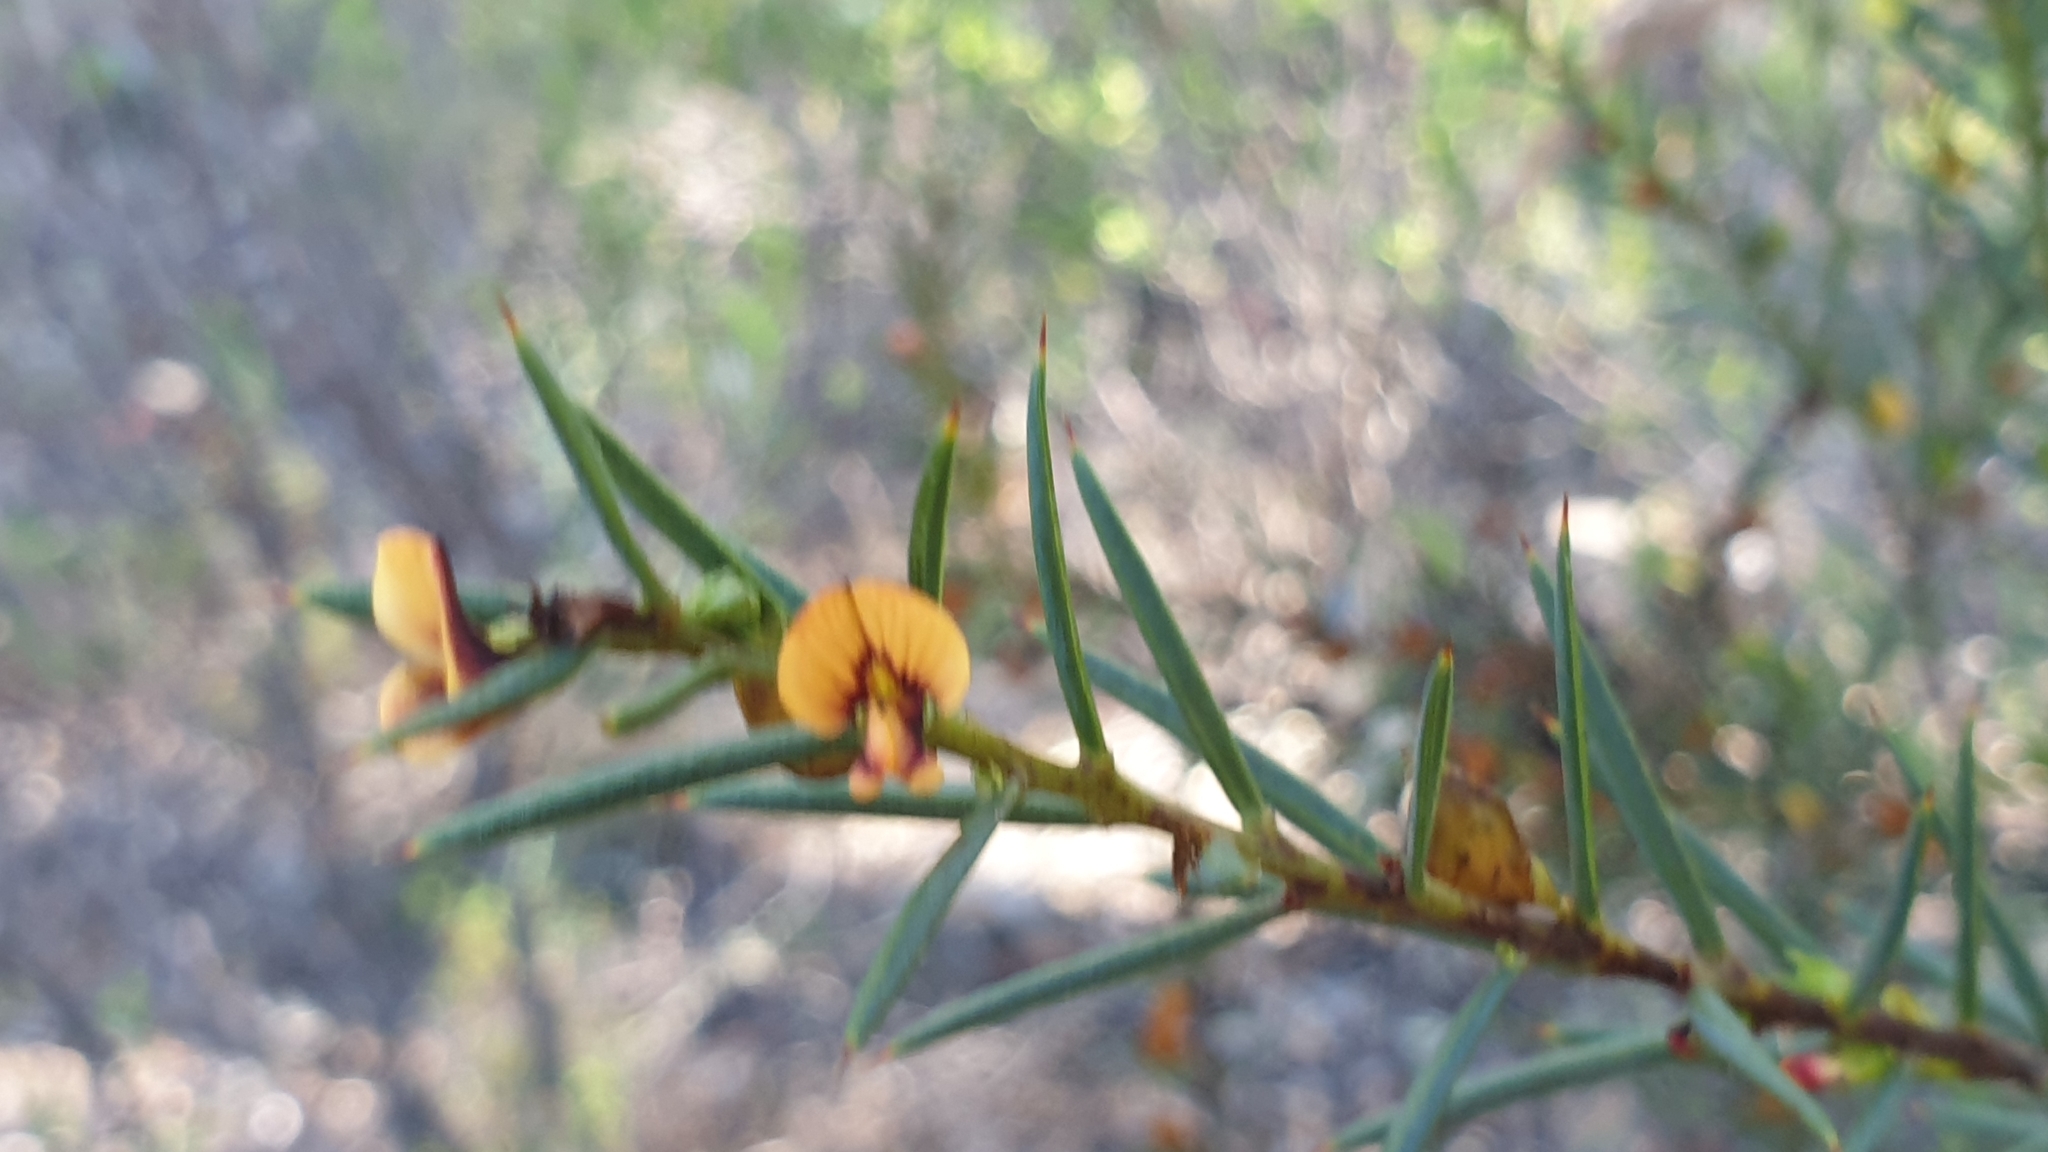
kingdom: Plantae
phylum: Tracheophyta
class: Magnoliopsida
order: Fabales
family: Fabaceae
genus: Daviesia
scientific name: Daviesia acicularis
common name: Sandplain bitter-pea
